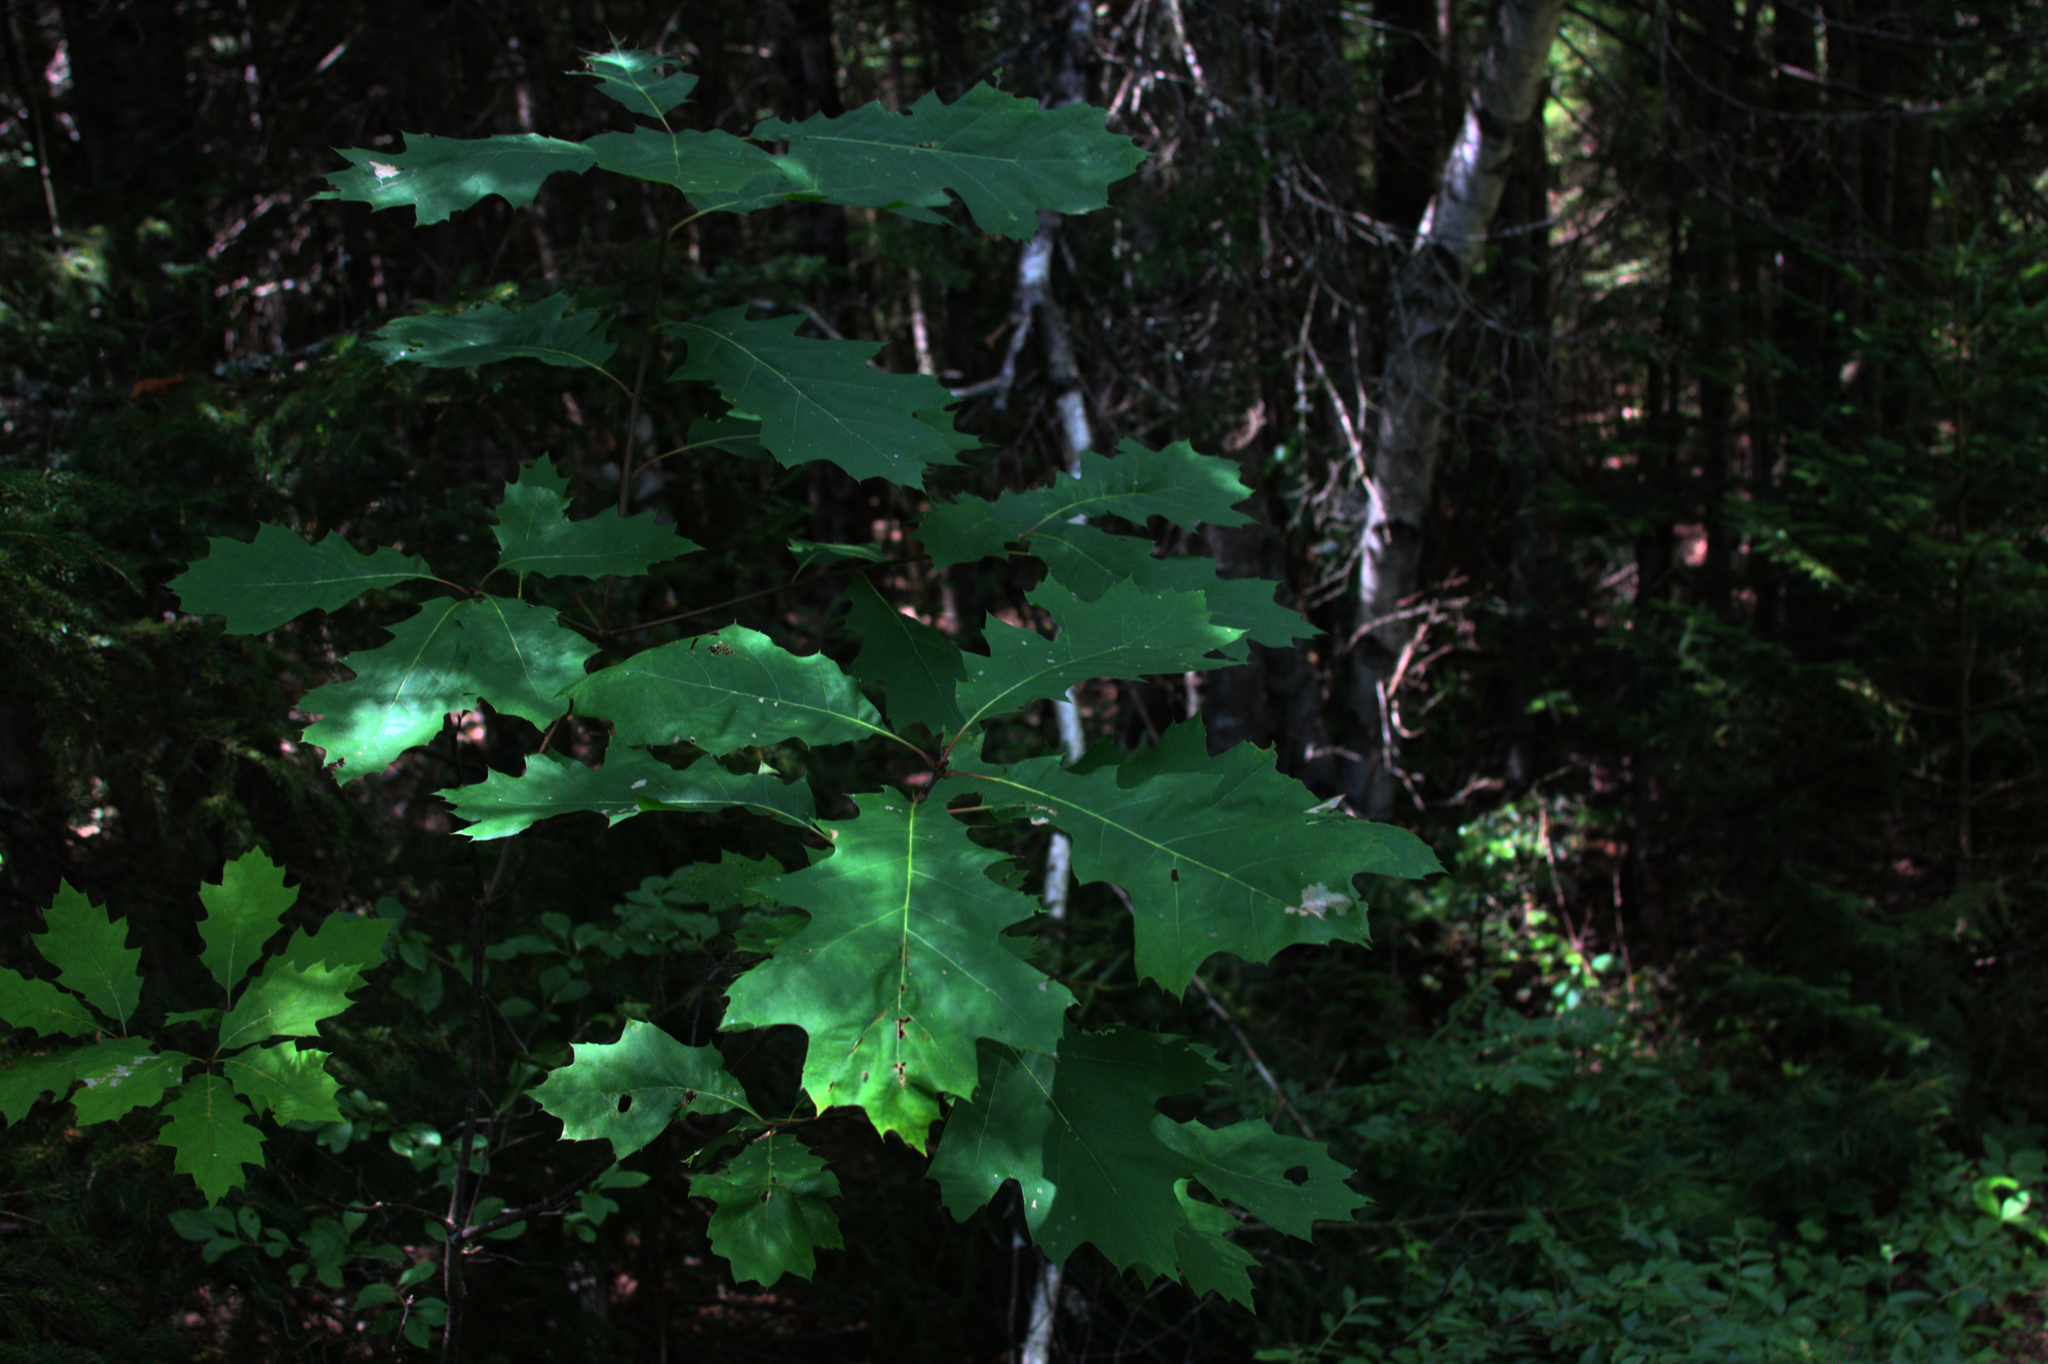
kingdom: Plantae
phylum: Tracheophyta
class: Magnoliopsida
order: Fagales
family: Fagaceae
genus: Quercus
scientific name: Quercus rubra
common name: Red oak
